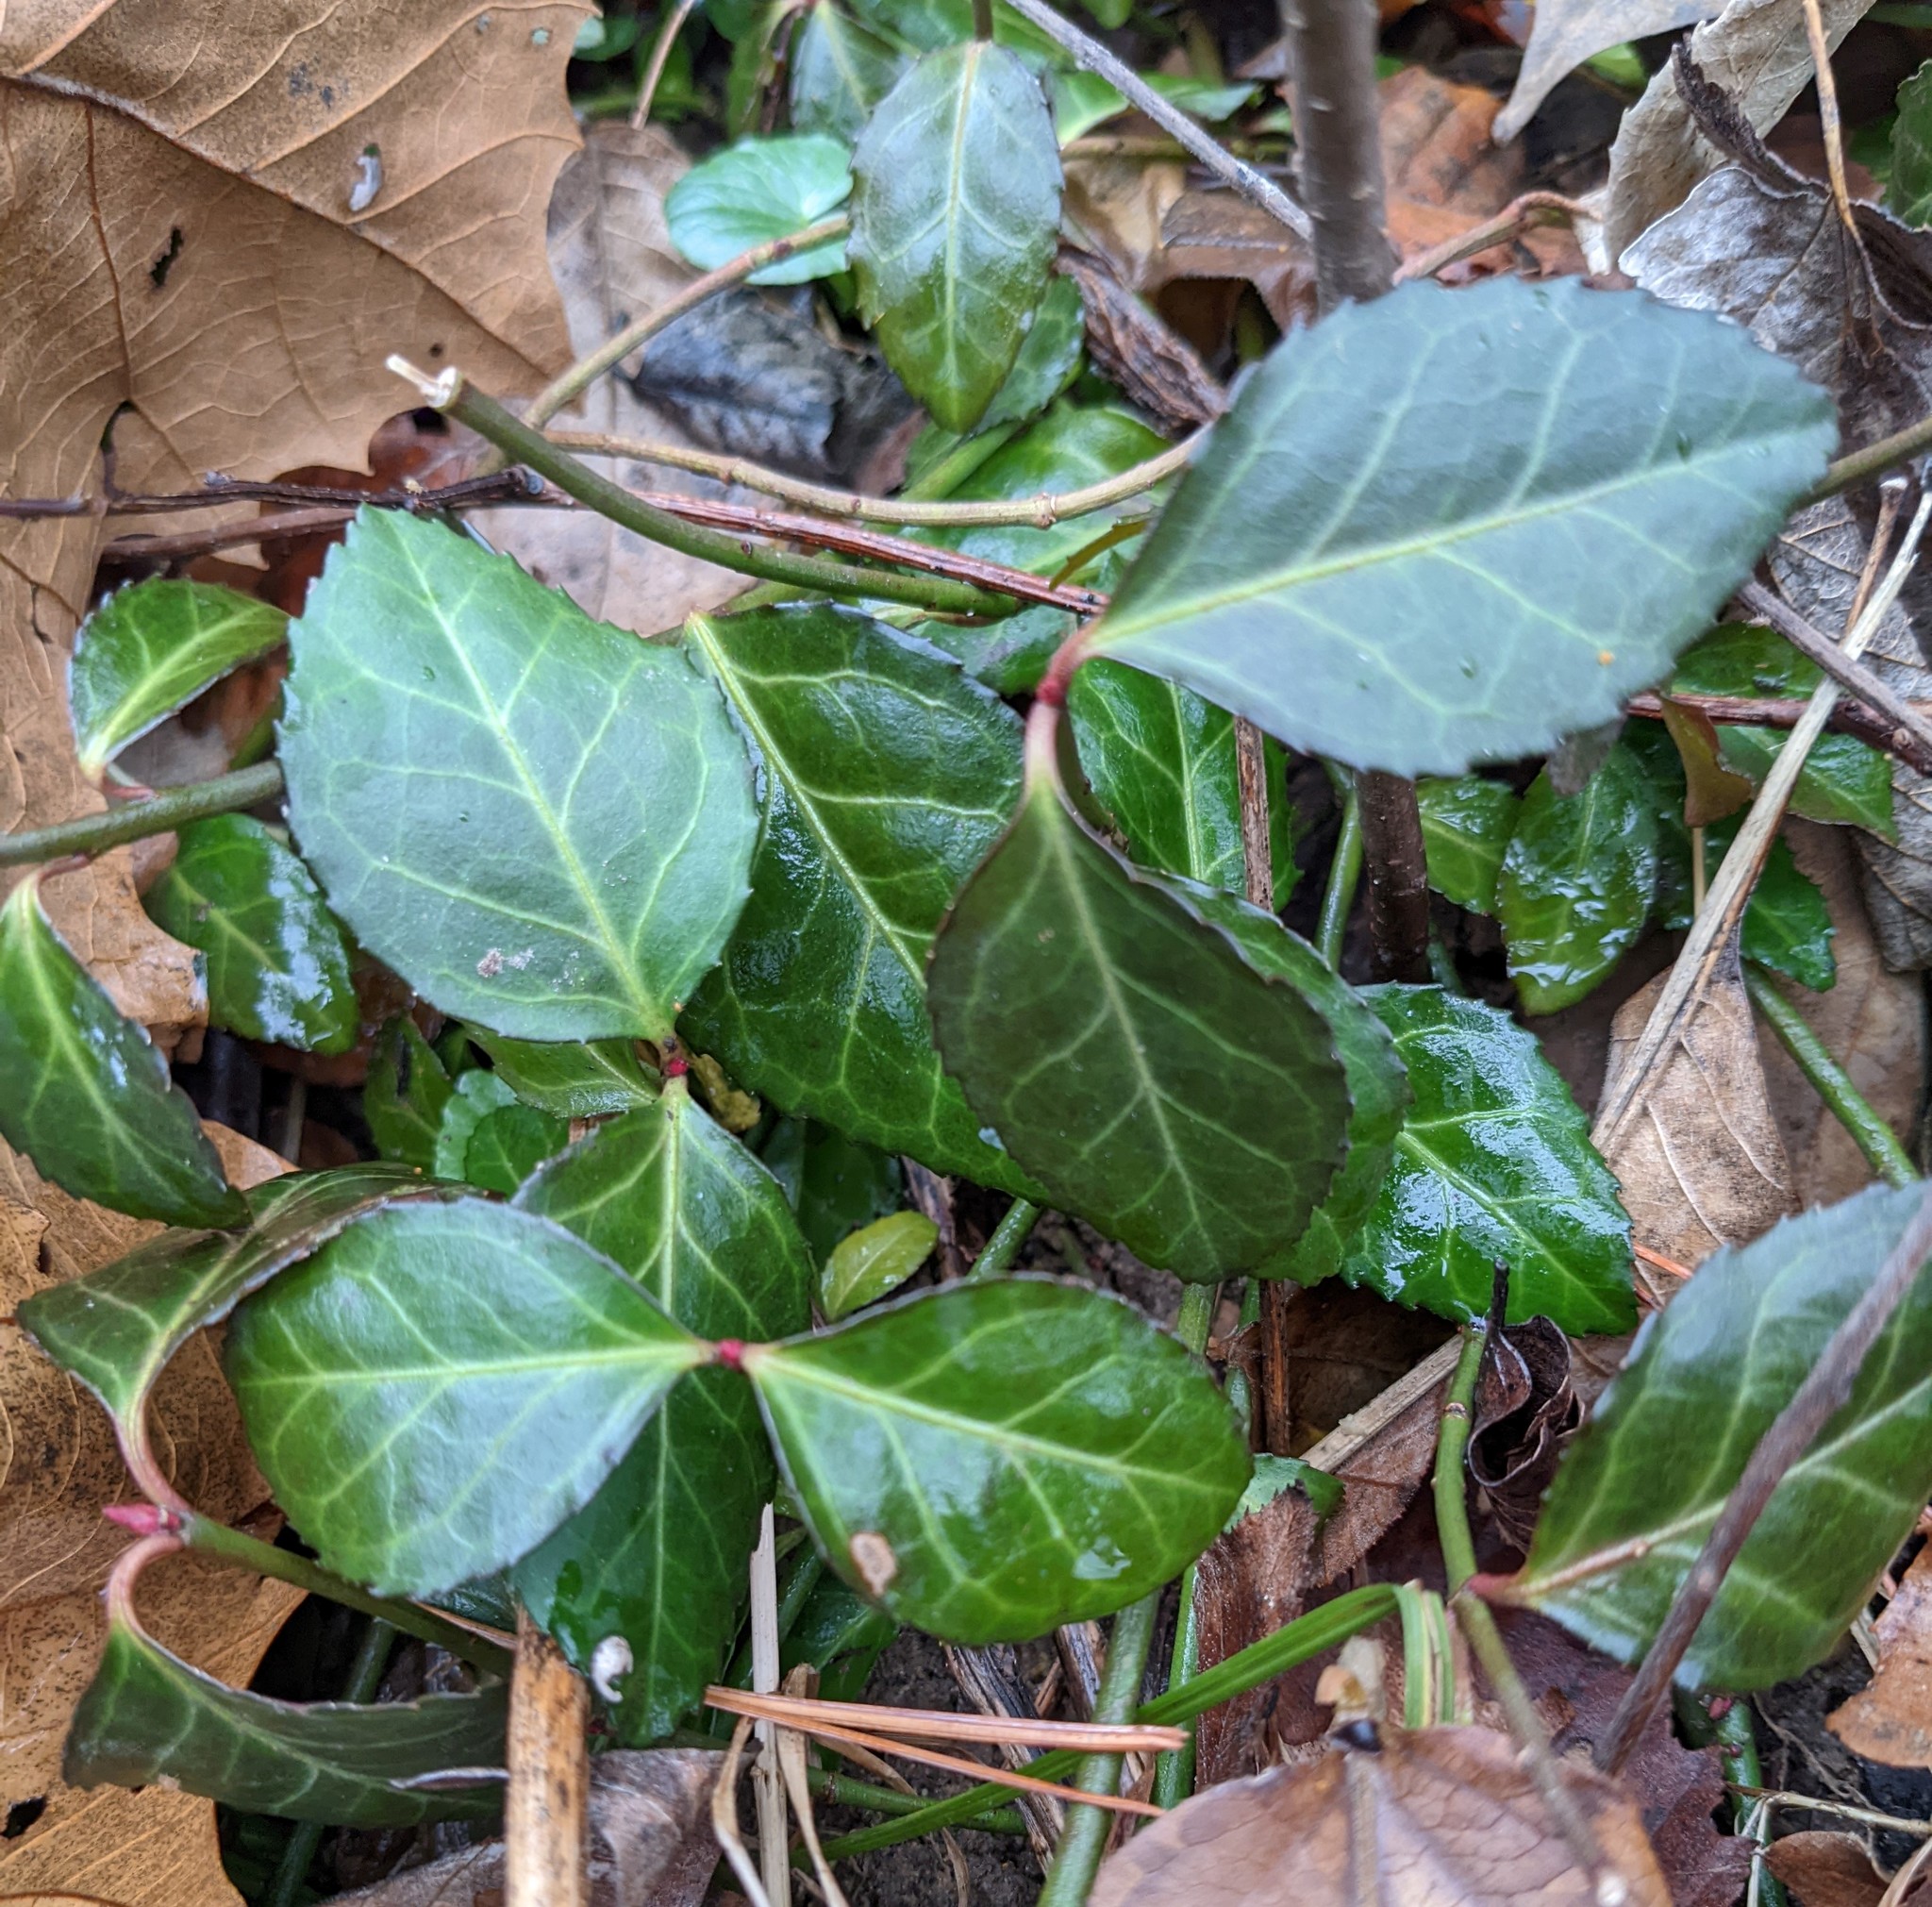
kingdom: Plantae
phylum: Tracheophyta
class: Magnoliopsida
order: Celastrales
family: Celastraceae
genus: Euonymus
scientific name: Euonymus fortunei
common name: Climbing euonymus
